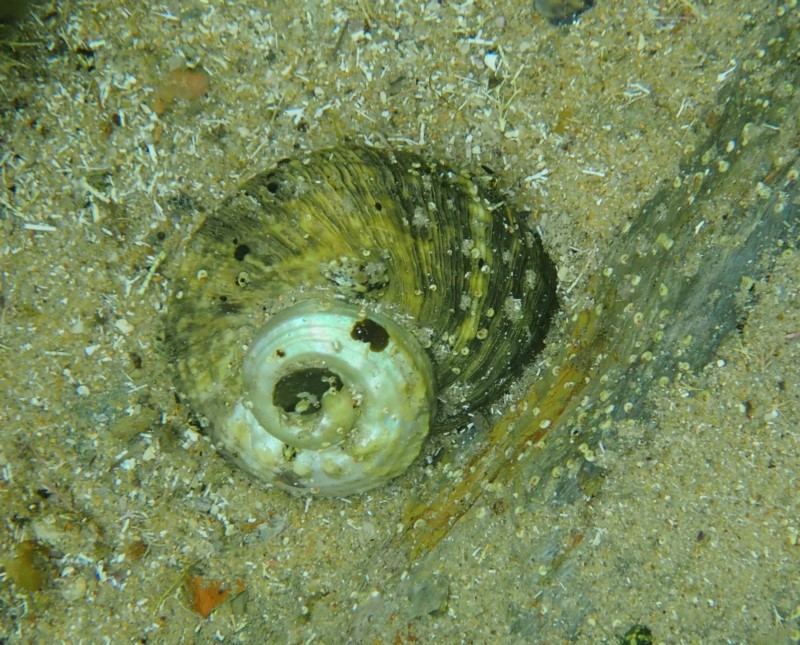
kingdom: Animalia
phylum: Mollusca
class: Gastropoda
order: Trochida
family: Turbinidae
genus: Lunella
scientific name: Lunella torquata
